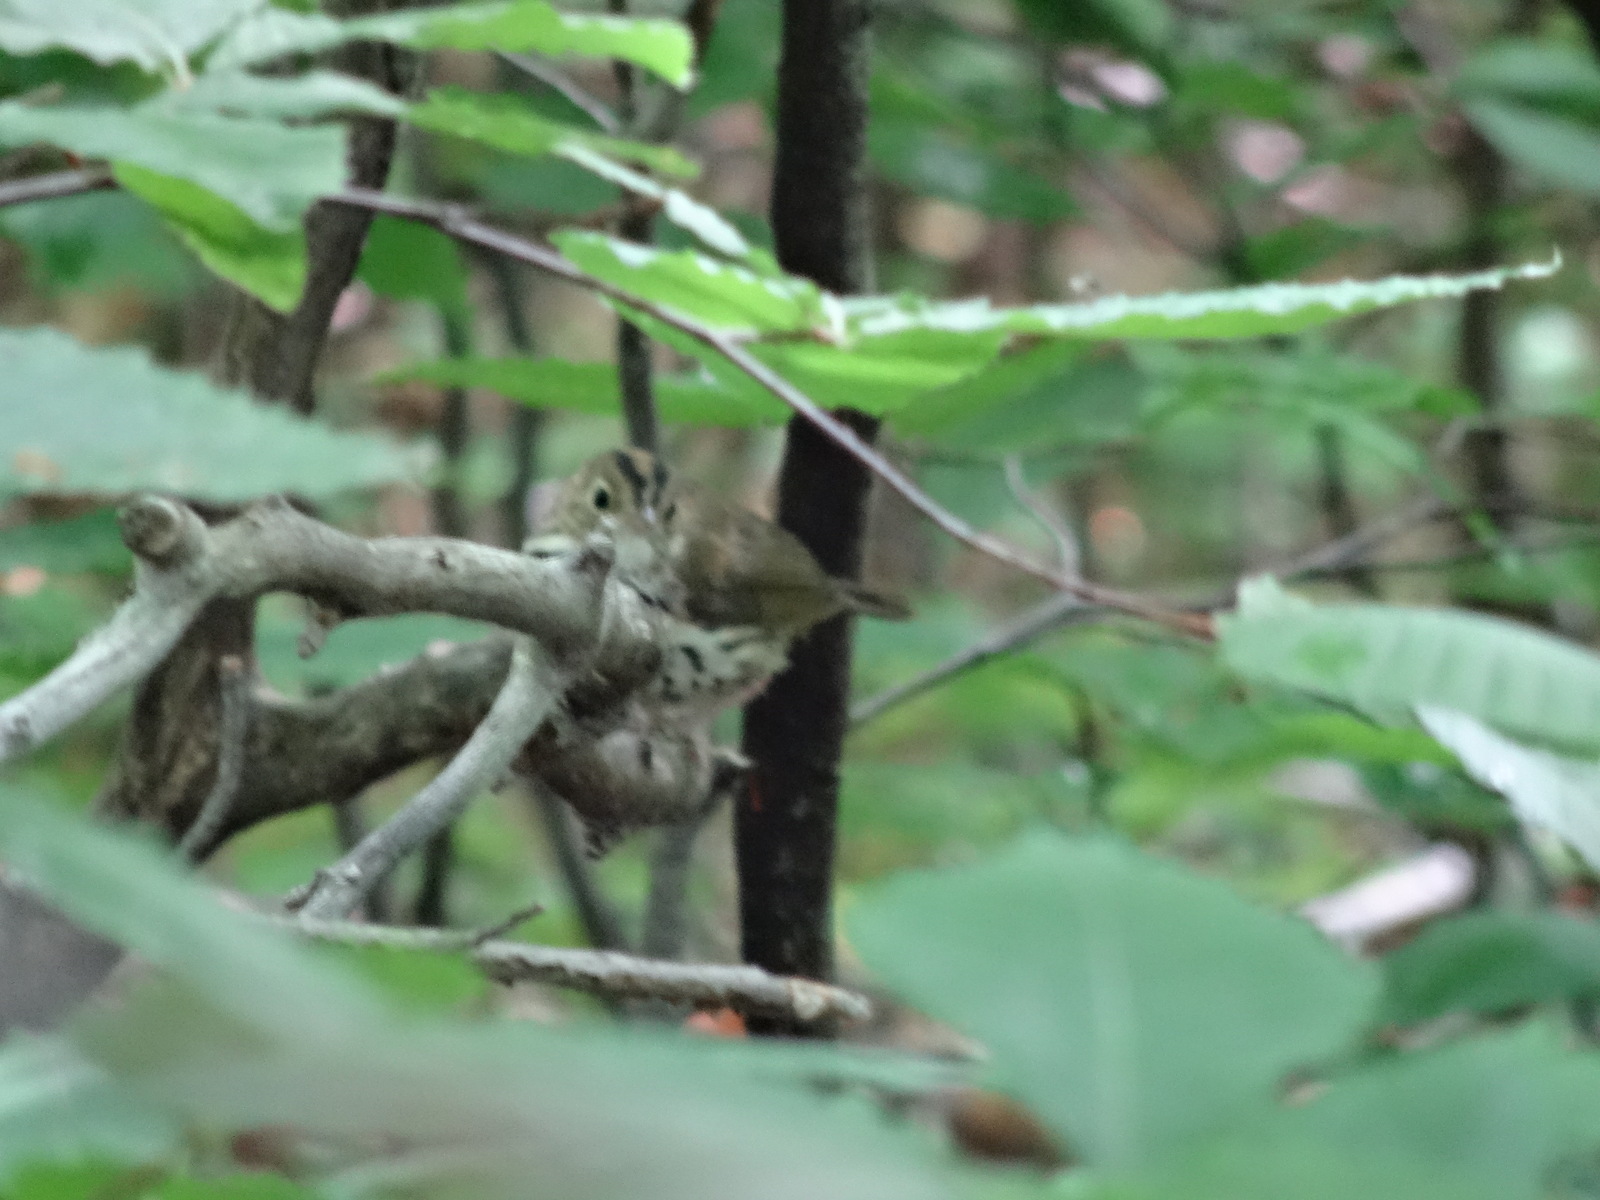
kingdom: Animalia
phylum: Chordata
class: Aves
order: Passeriformes
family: Parulidae
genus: Seiurus
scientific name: Seiurus aurocapilla
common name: Ovenbird
